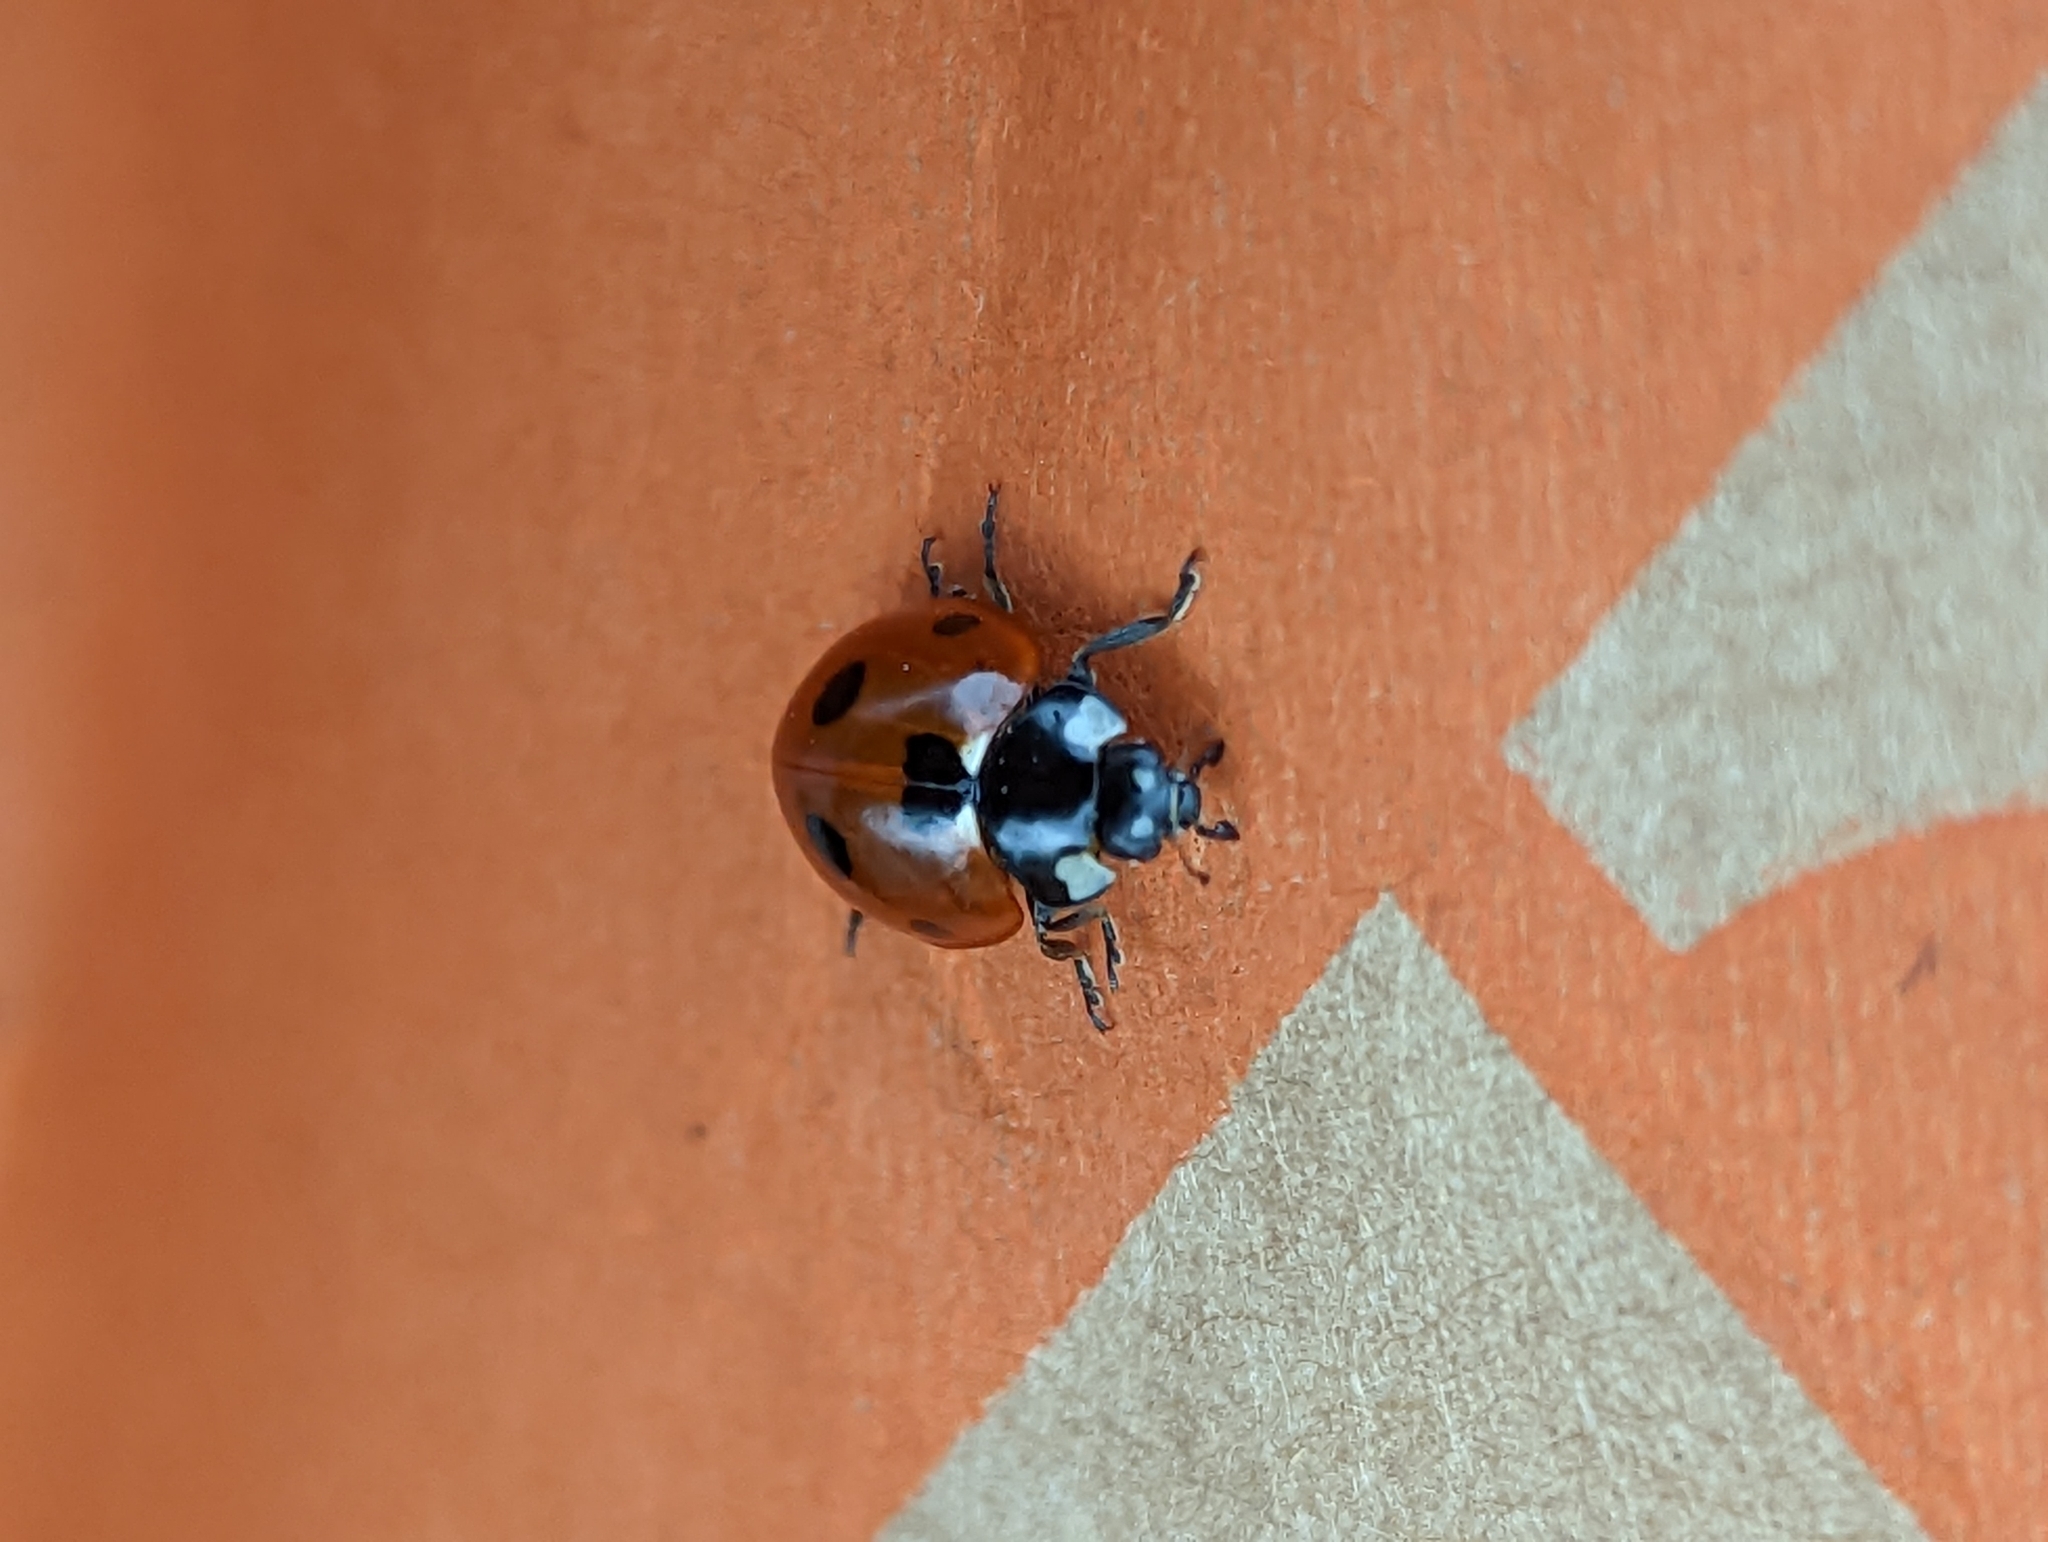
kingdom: Animalia
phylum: Arthropoda
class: Insecta
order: Coleoptera
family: Coccinellidae
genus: Coccinella
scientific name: Coccinella septempunctata
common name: Sevenspotted lady beetle
